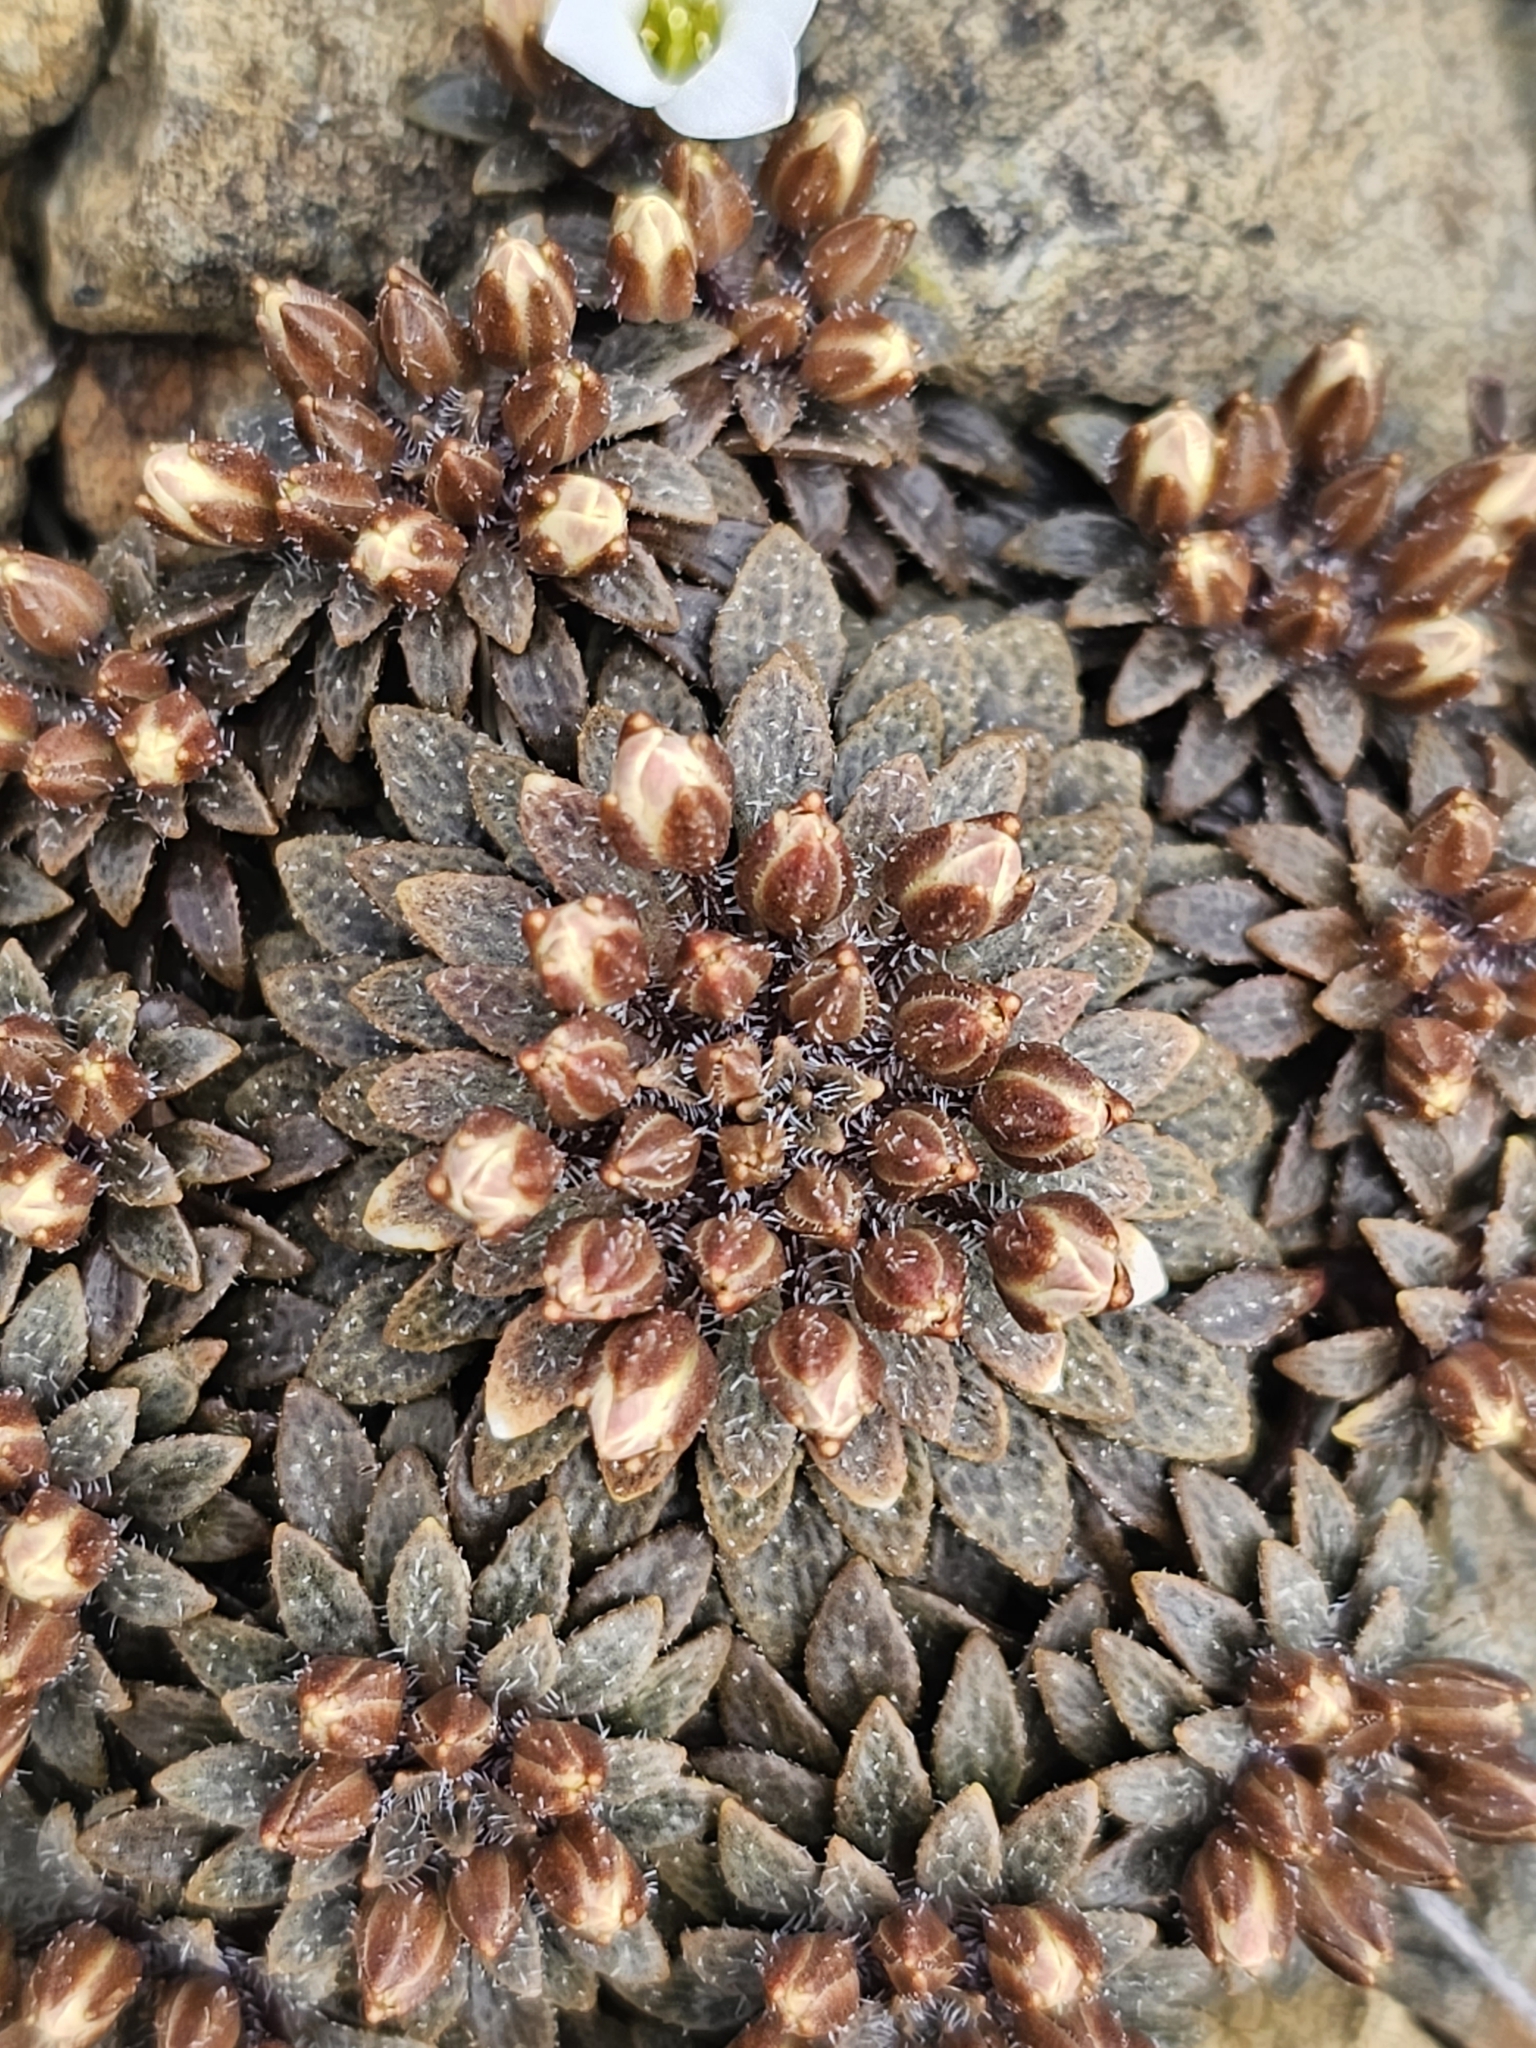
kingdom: Plantae
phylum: Tracheophyta
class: Magnoliopsida
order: Brassicales
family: Brassicaceae
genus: Notothlaspi
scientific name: Notothlaspi australe
